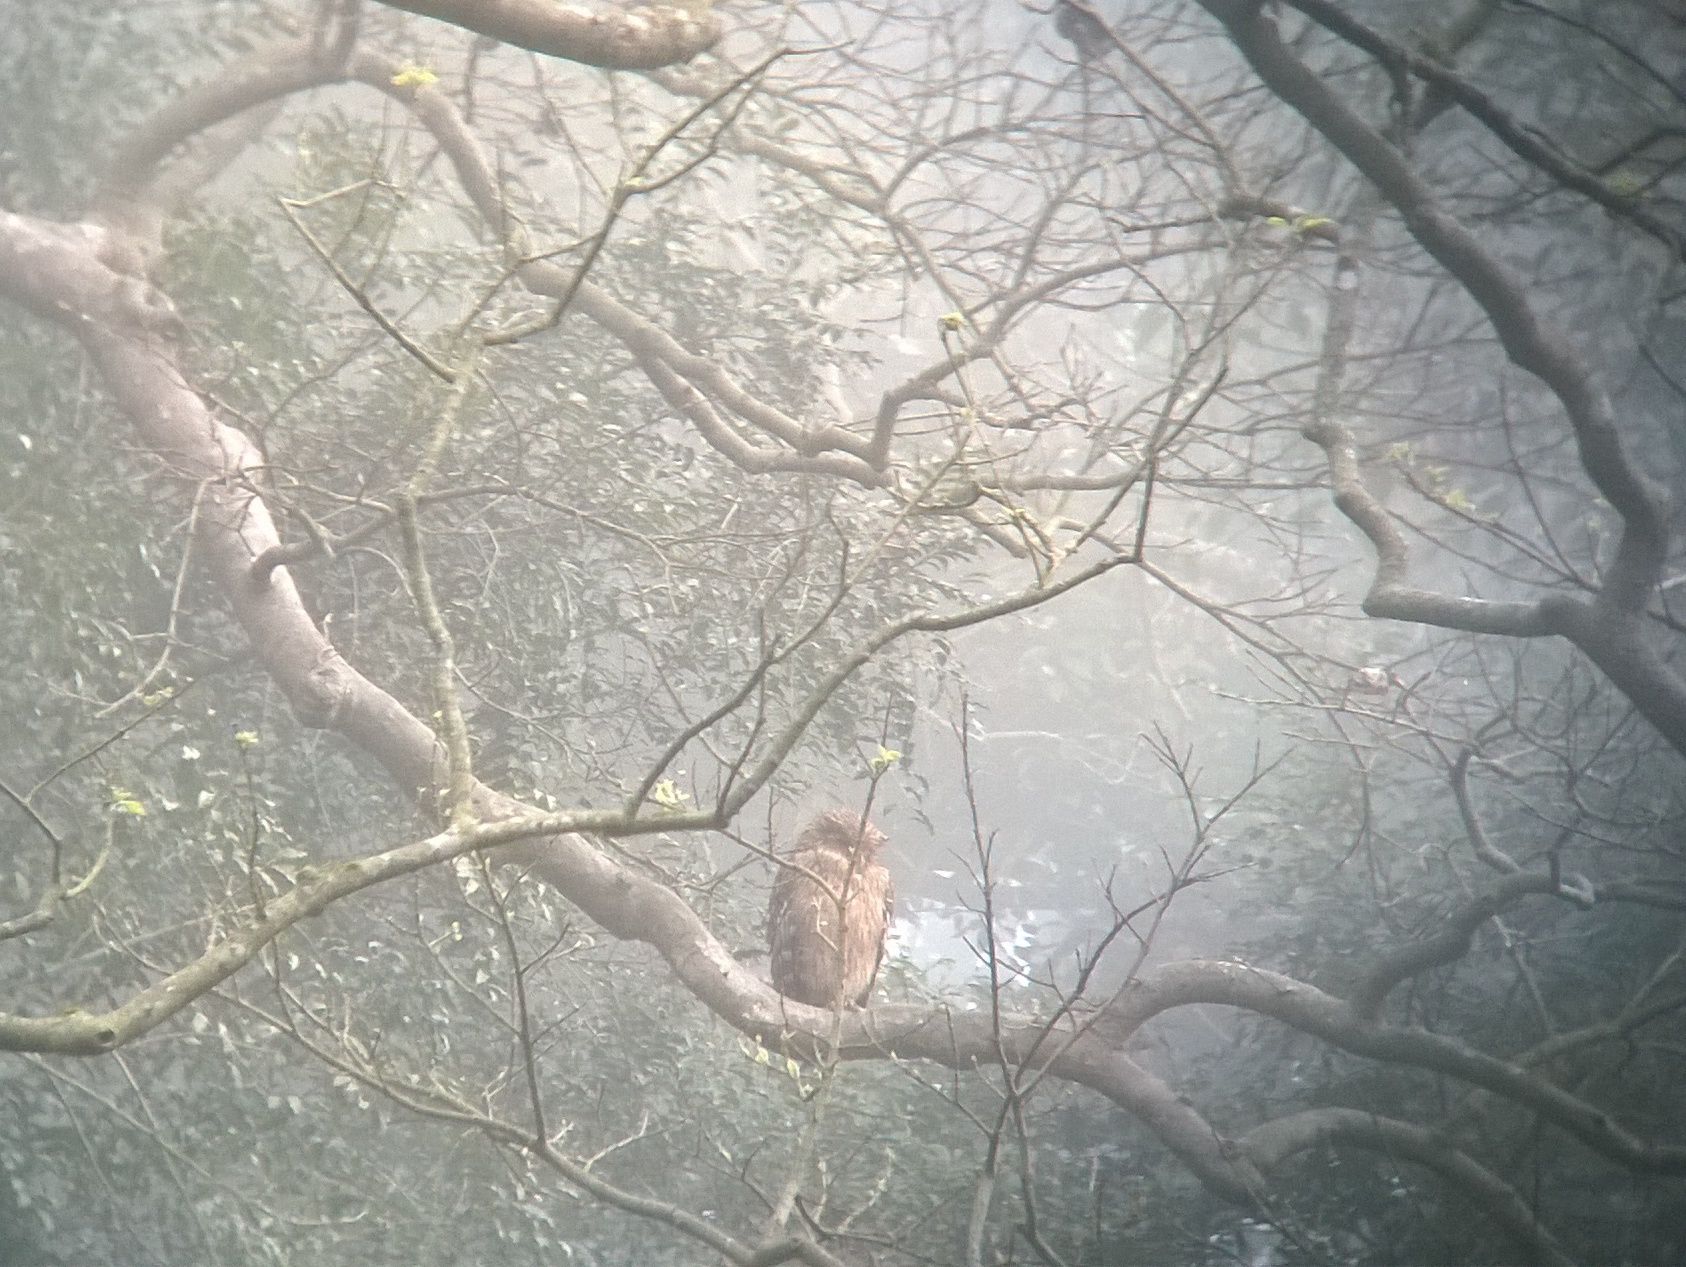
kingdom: Animalia
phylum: Chordata
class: Aves
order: Strigiformes
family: Strigidae
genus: Ketupa
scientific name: Ketupa zeylonensis
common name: Brown fish owl
